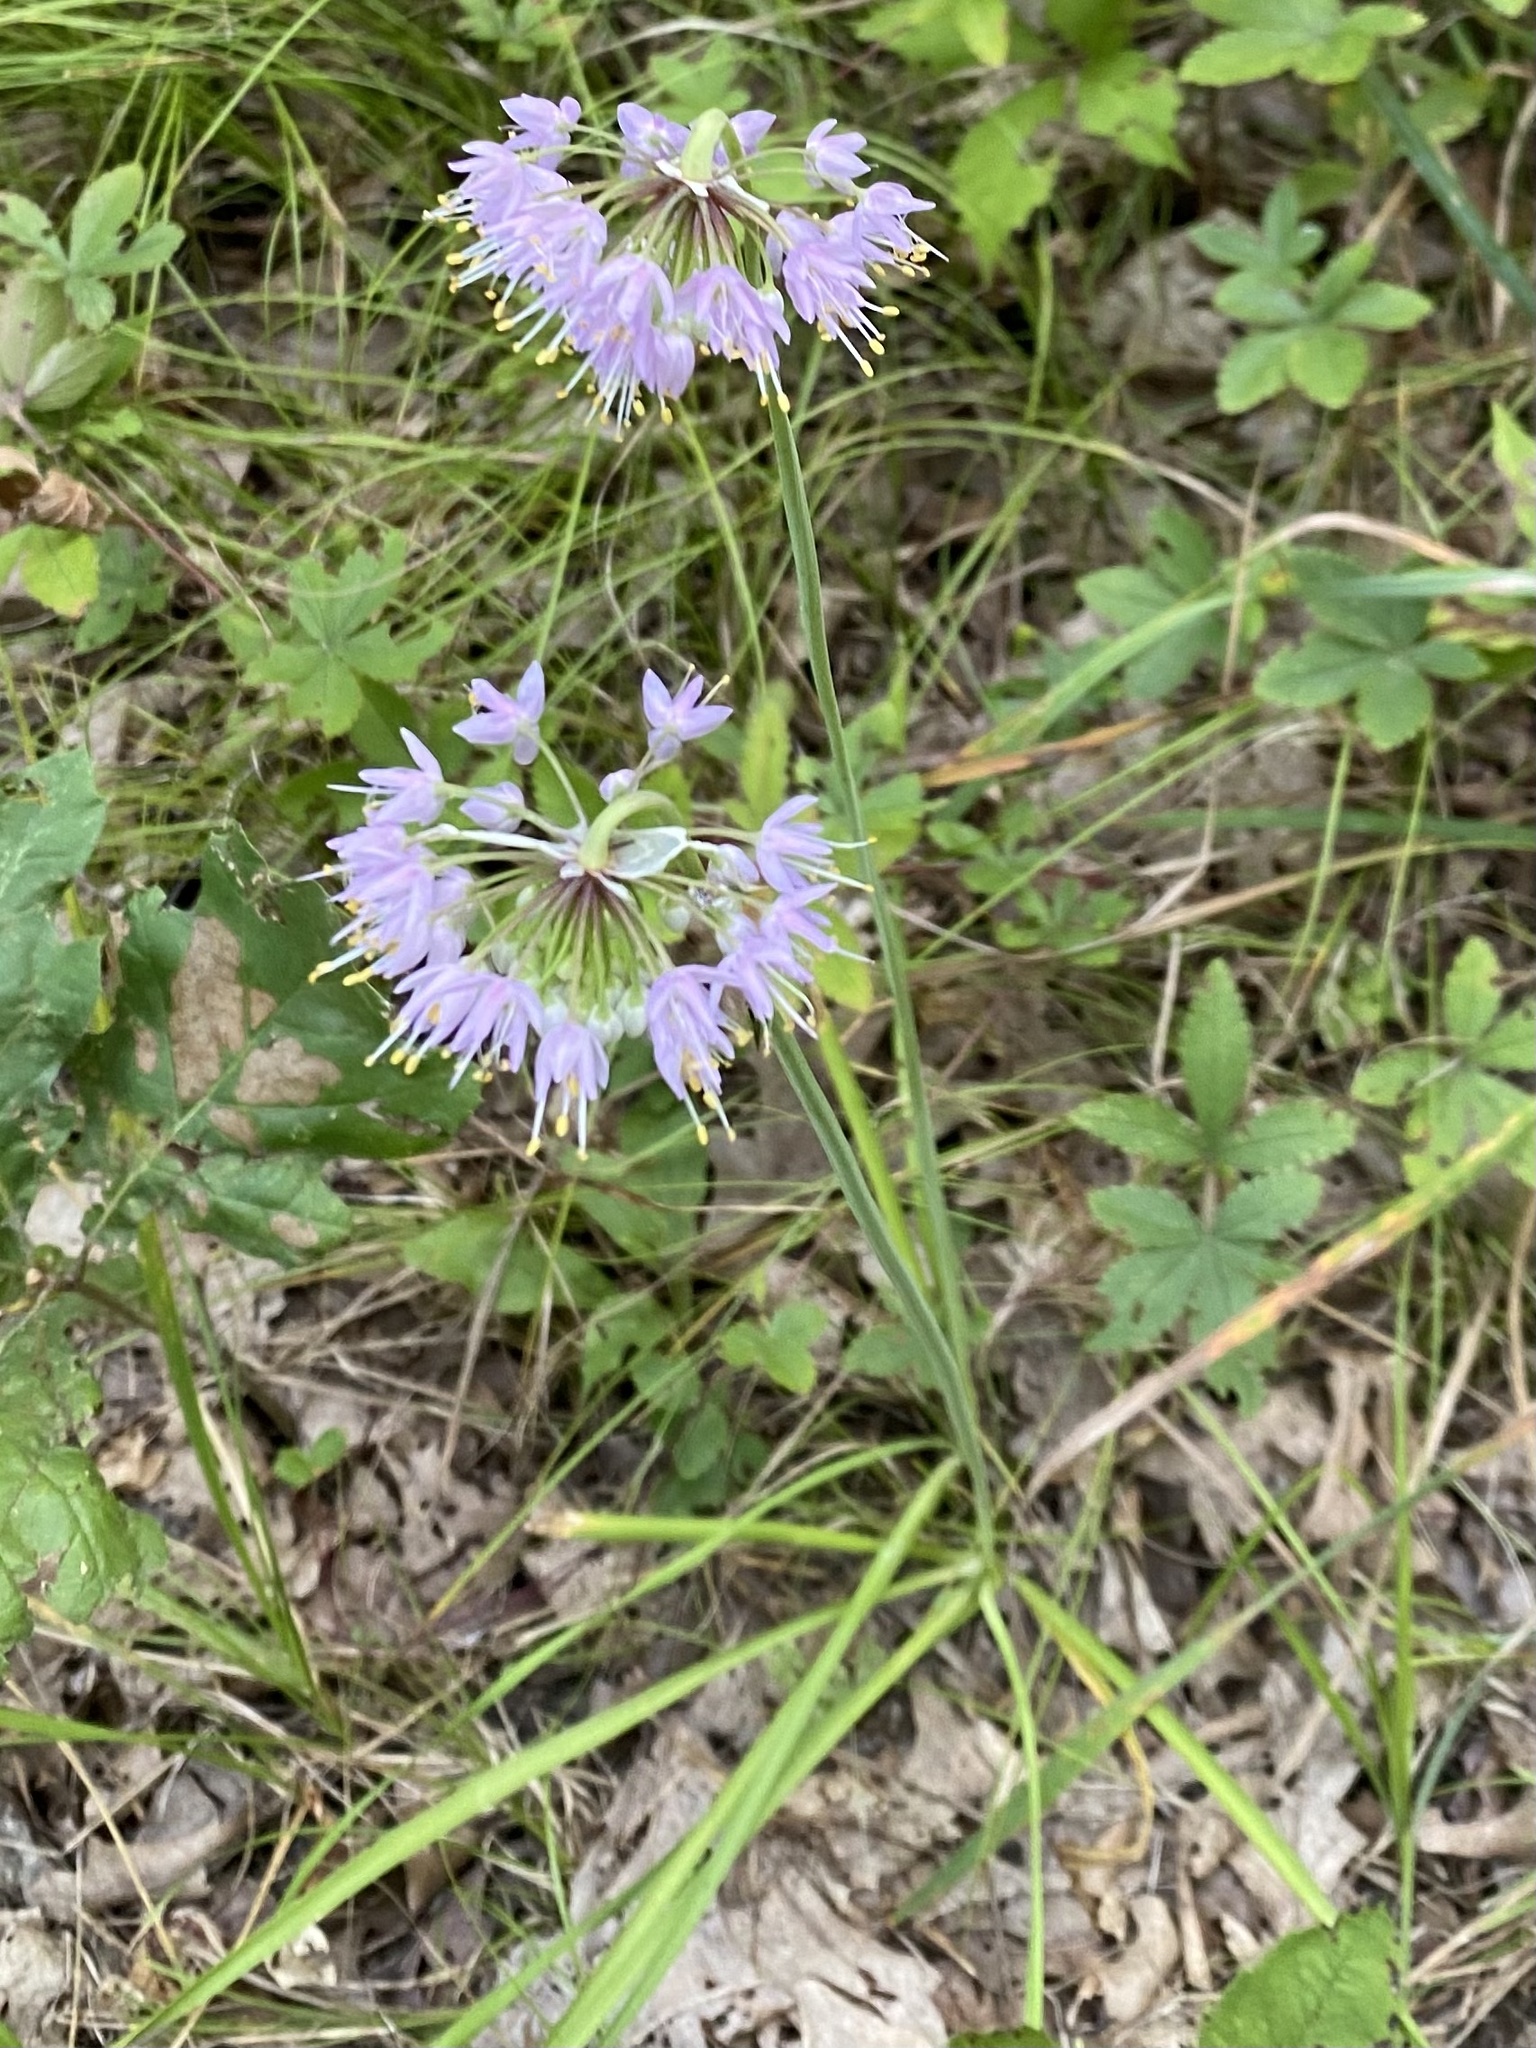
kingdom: Plantae
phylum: Tracheophyta
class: Liliopsida
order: Asparagales
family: Amaryllidaceae
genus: Allium
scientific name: Allium cernuum
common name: Nodding onion
